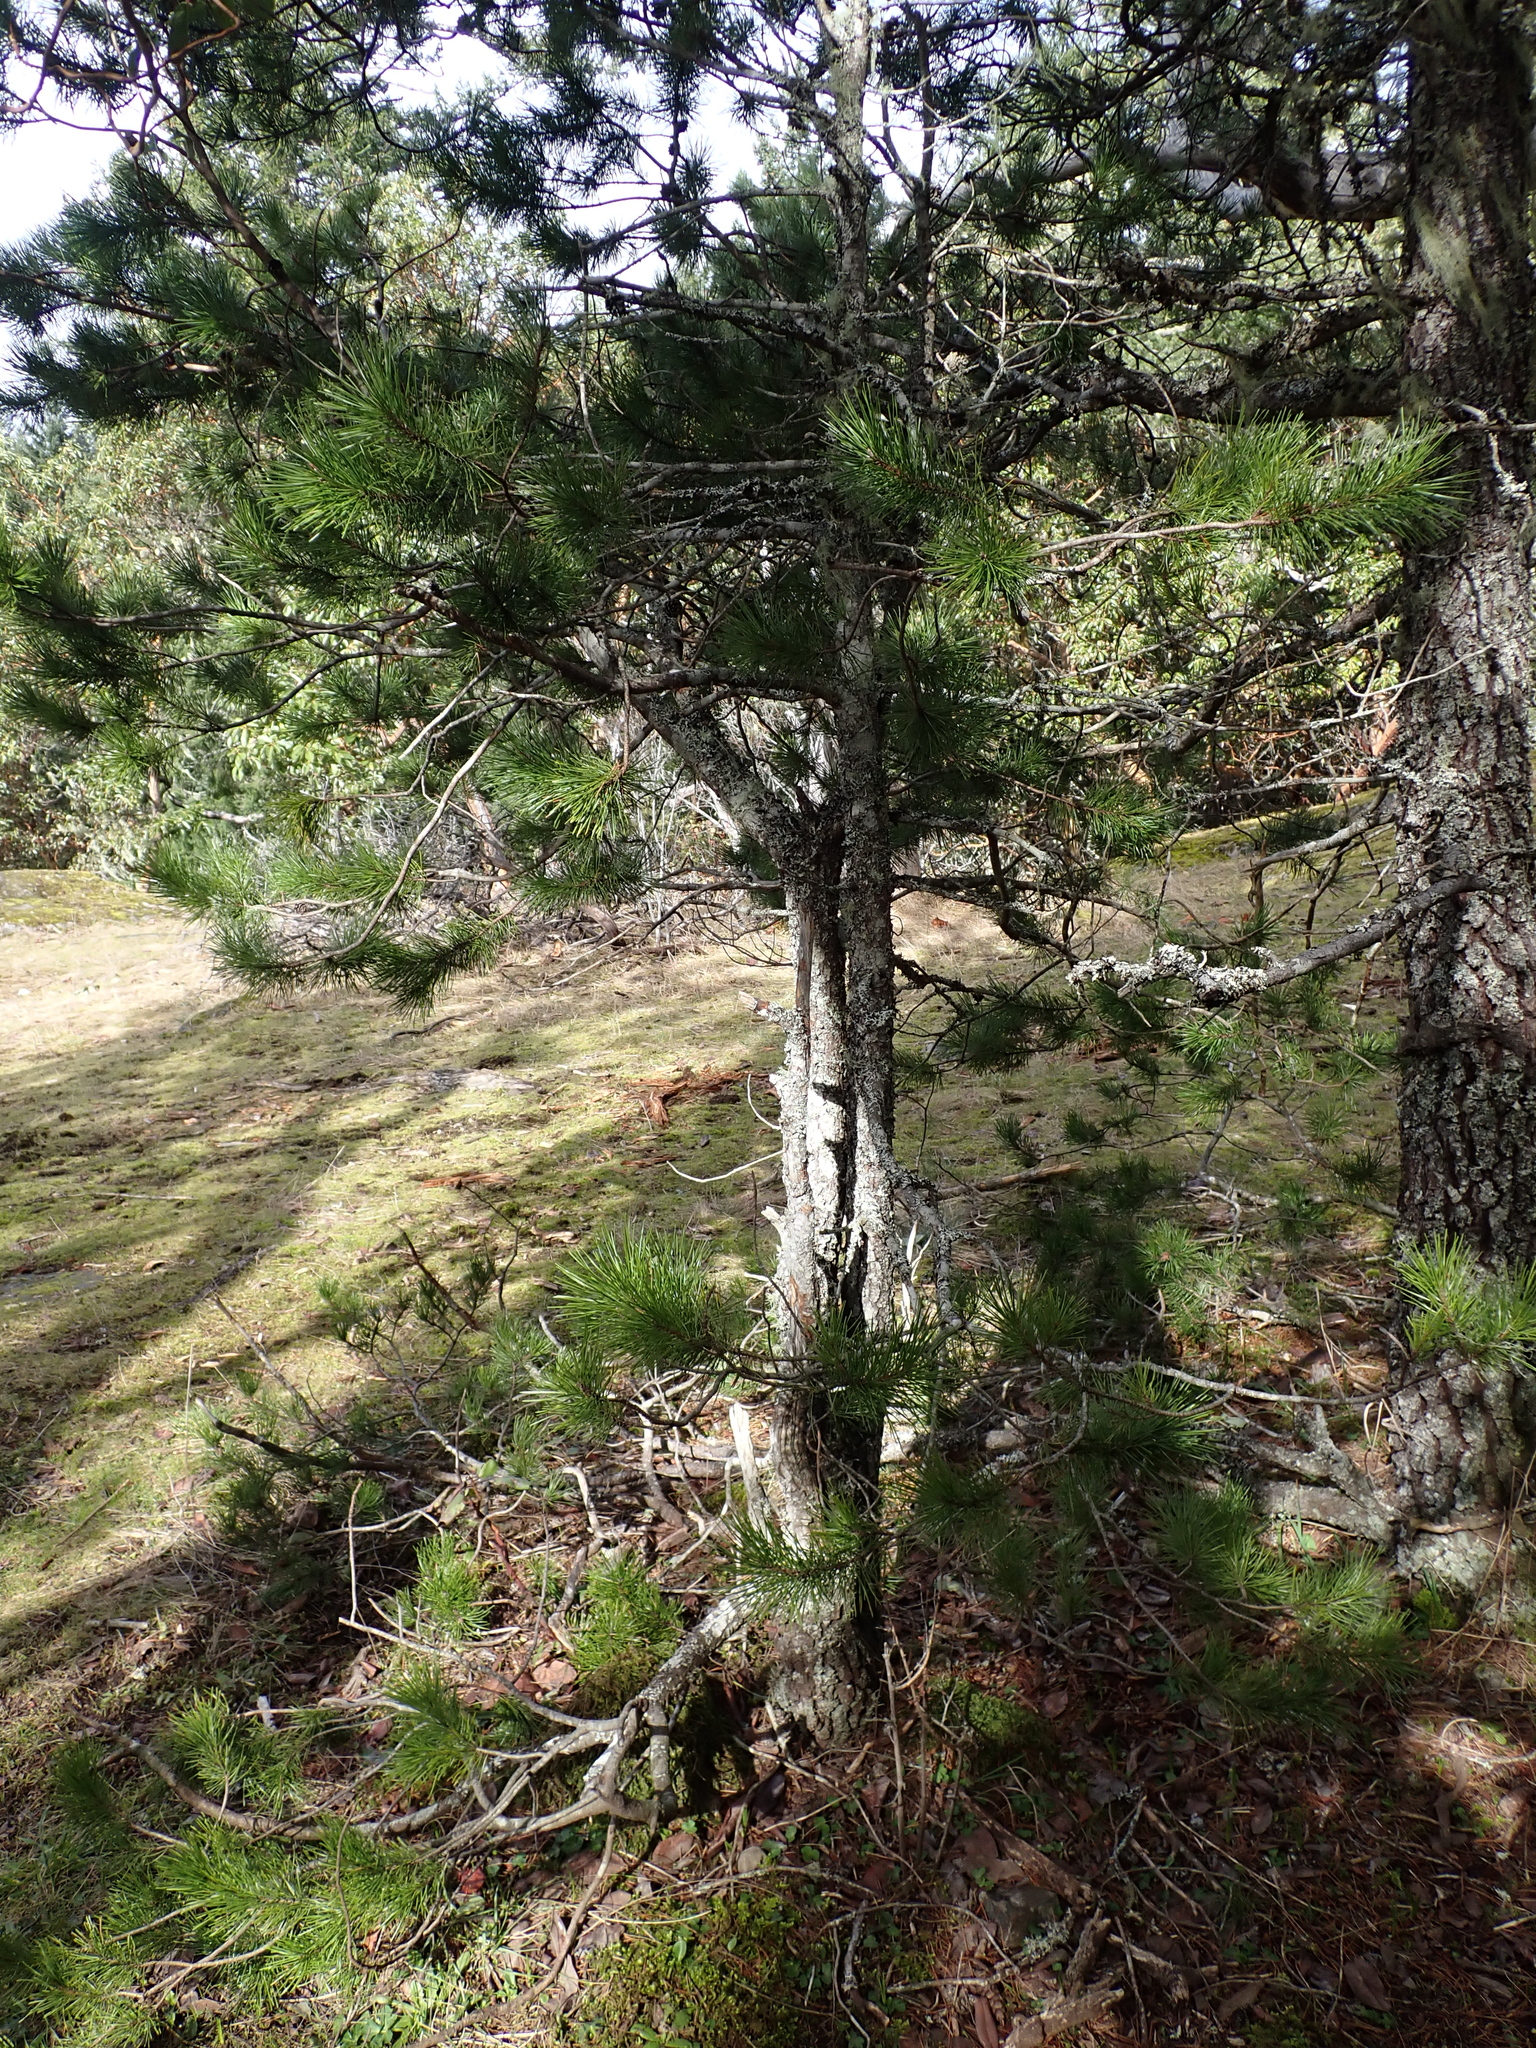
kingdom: Plantae
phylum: Tracheophyta
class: Pinopsida
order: Pinales
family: Pinaceae
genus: Pinus
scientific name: Pinus contorta
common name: Lodgepole pine
